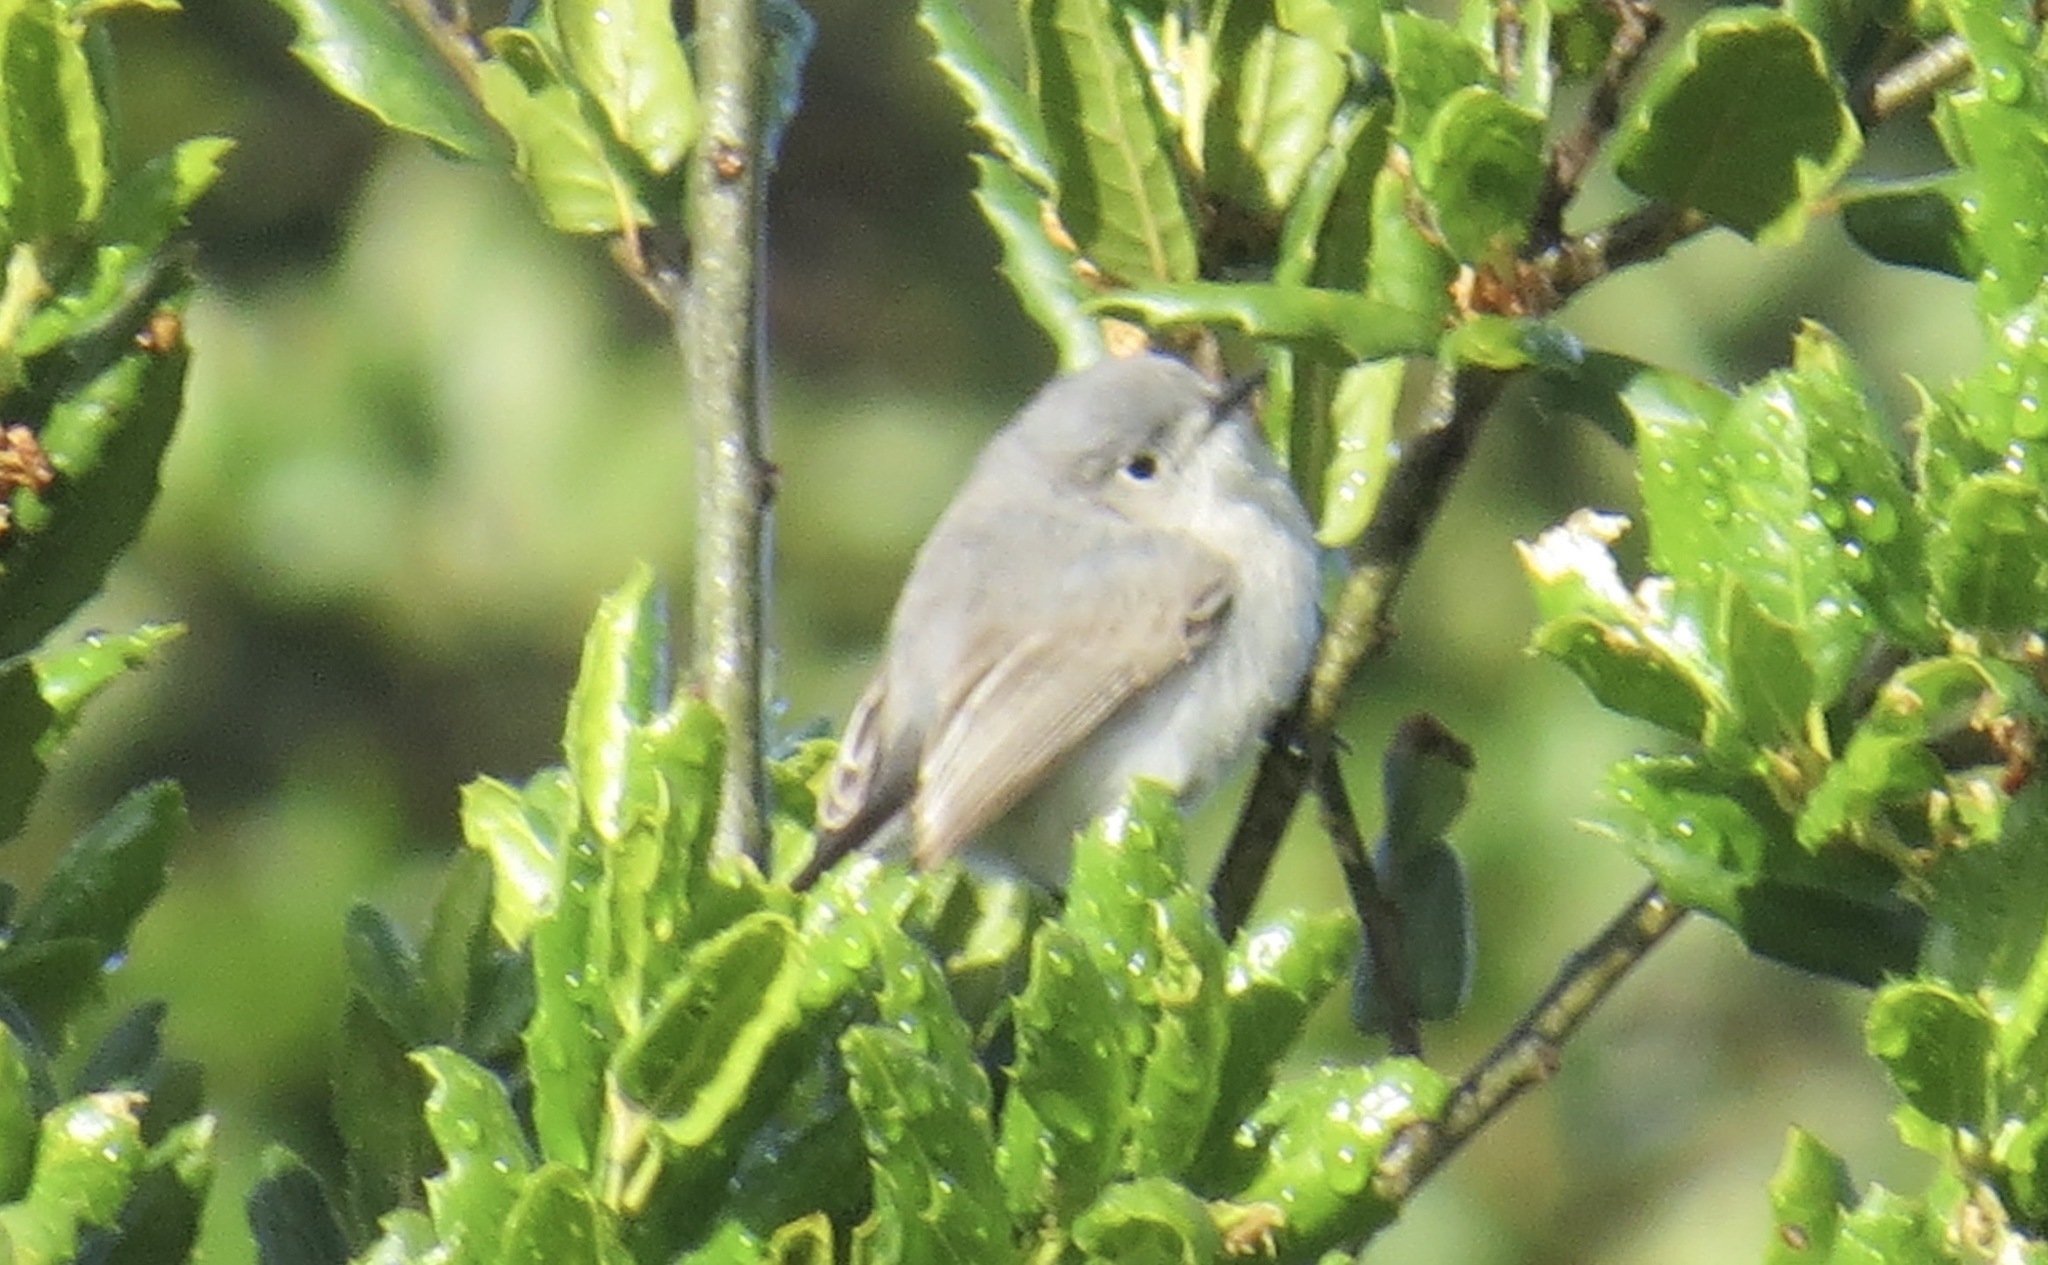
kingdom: Animalia
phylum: Chordata
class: Aves
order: Passeriformes
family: Polioptilidae
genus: Polioptila
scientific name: Polioptila caerulea
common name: Blue-gray gnatcatcher
